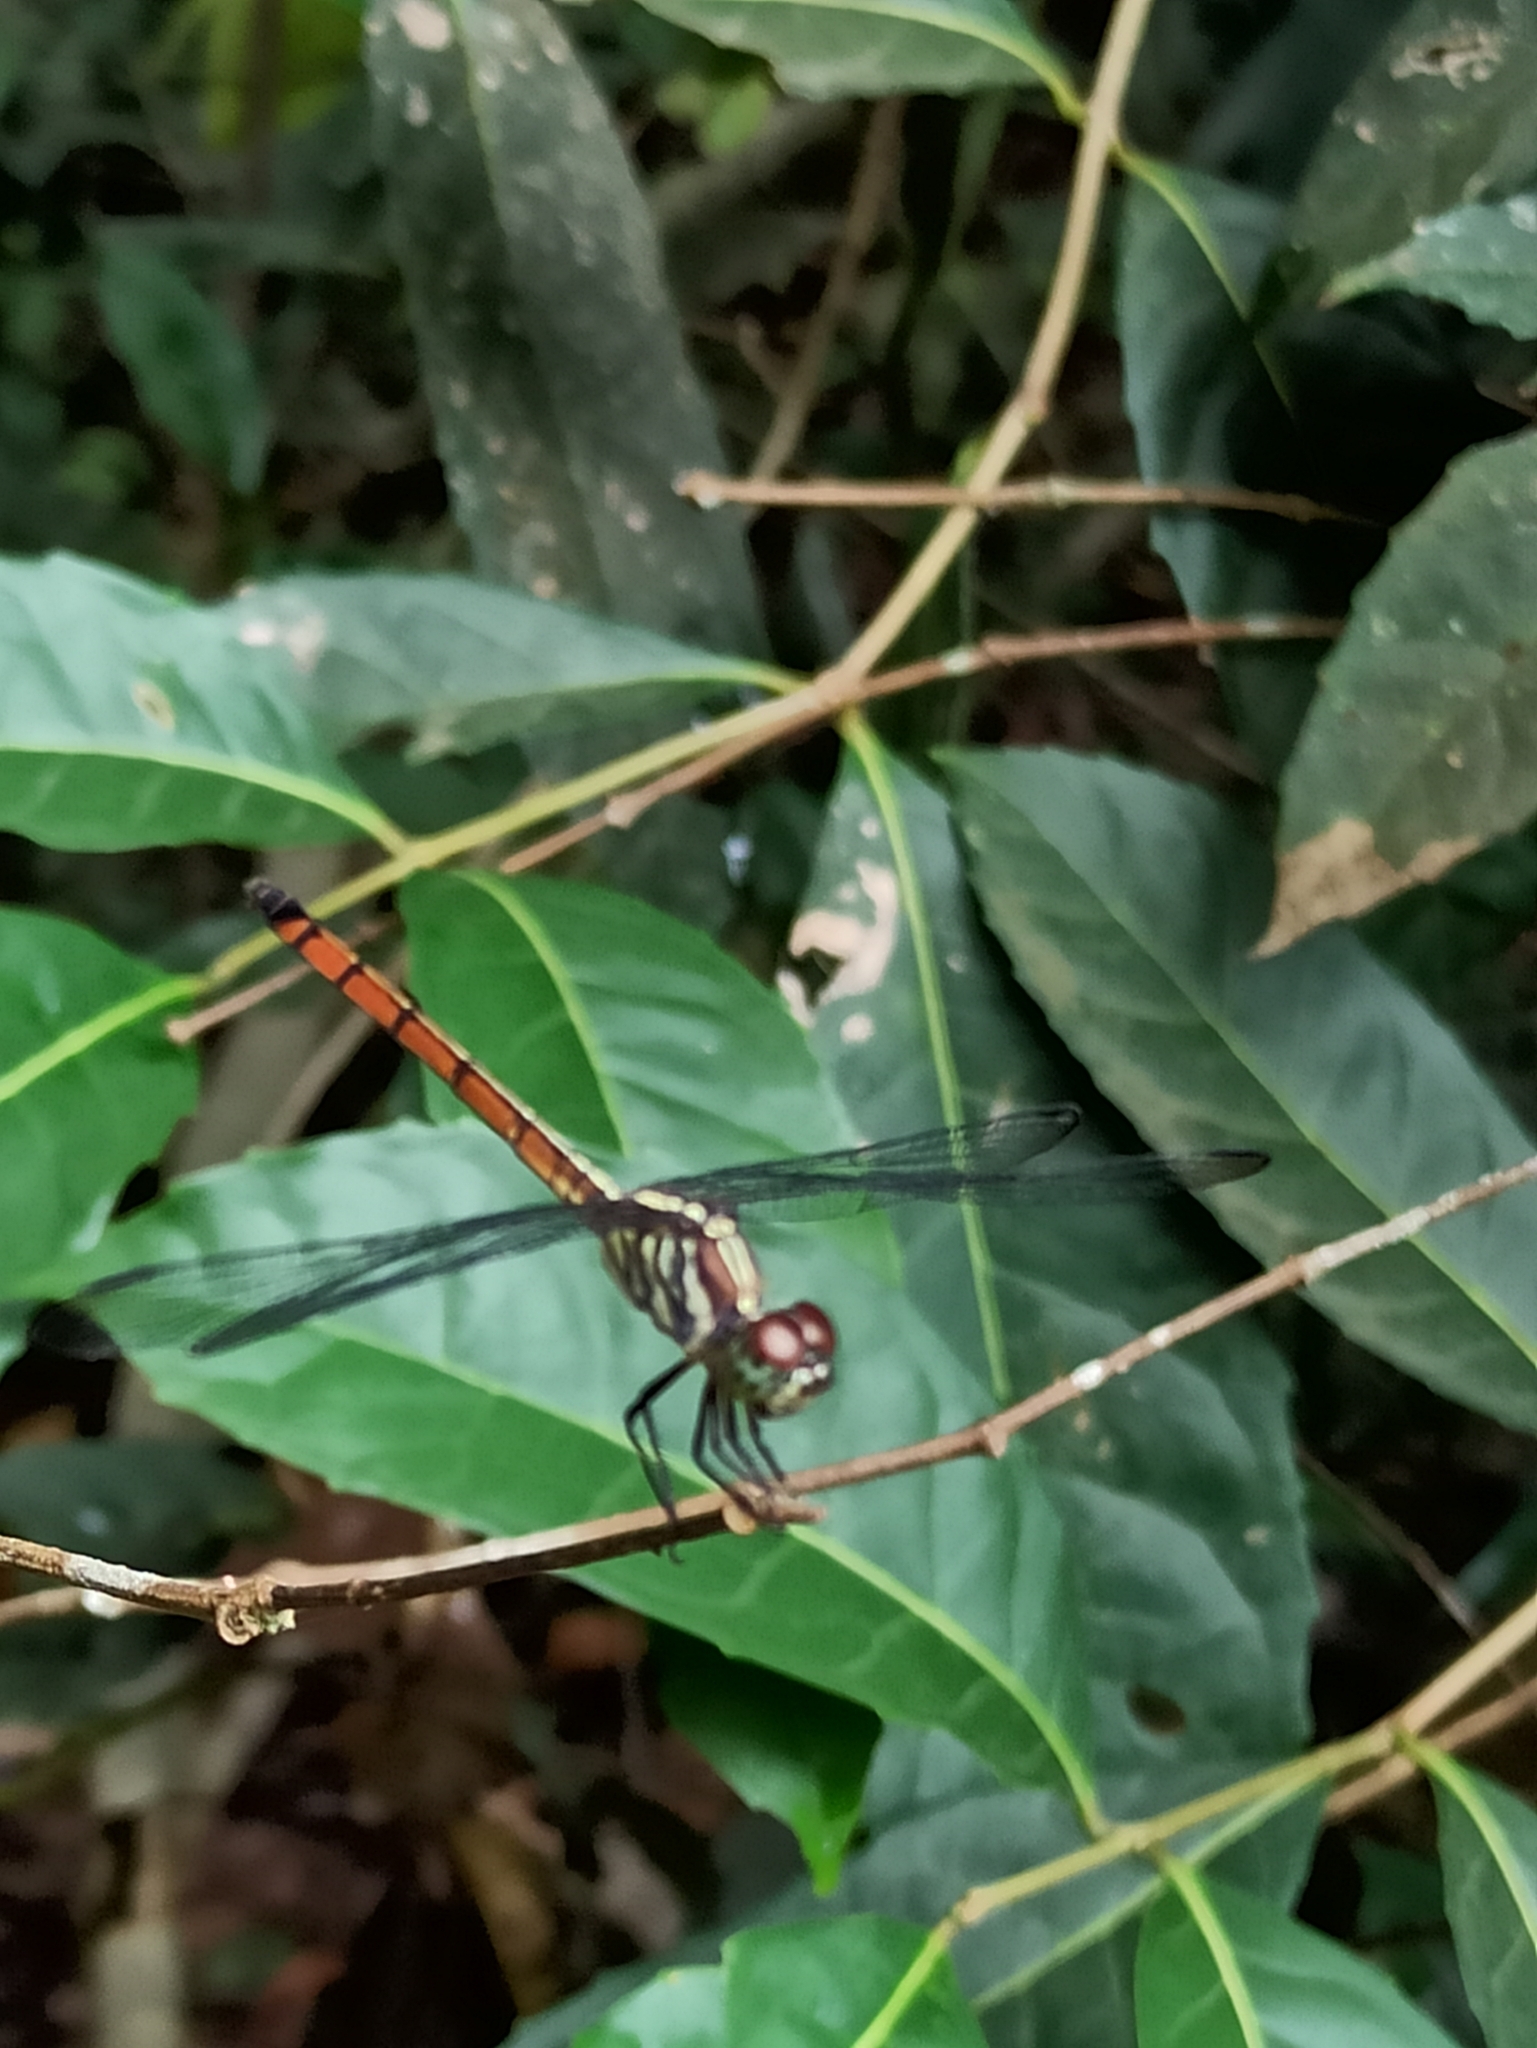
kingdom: Animalia
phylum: Arthropoda
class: Insecta
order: Odonata
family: Libellulidae
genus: Lathrecista
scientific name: Lathrecista asiatica
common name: Scarlet grenadier
